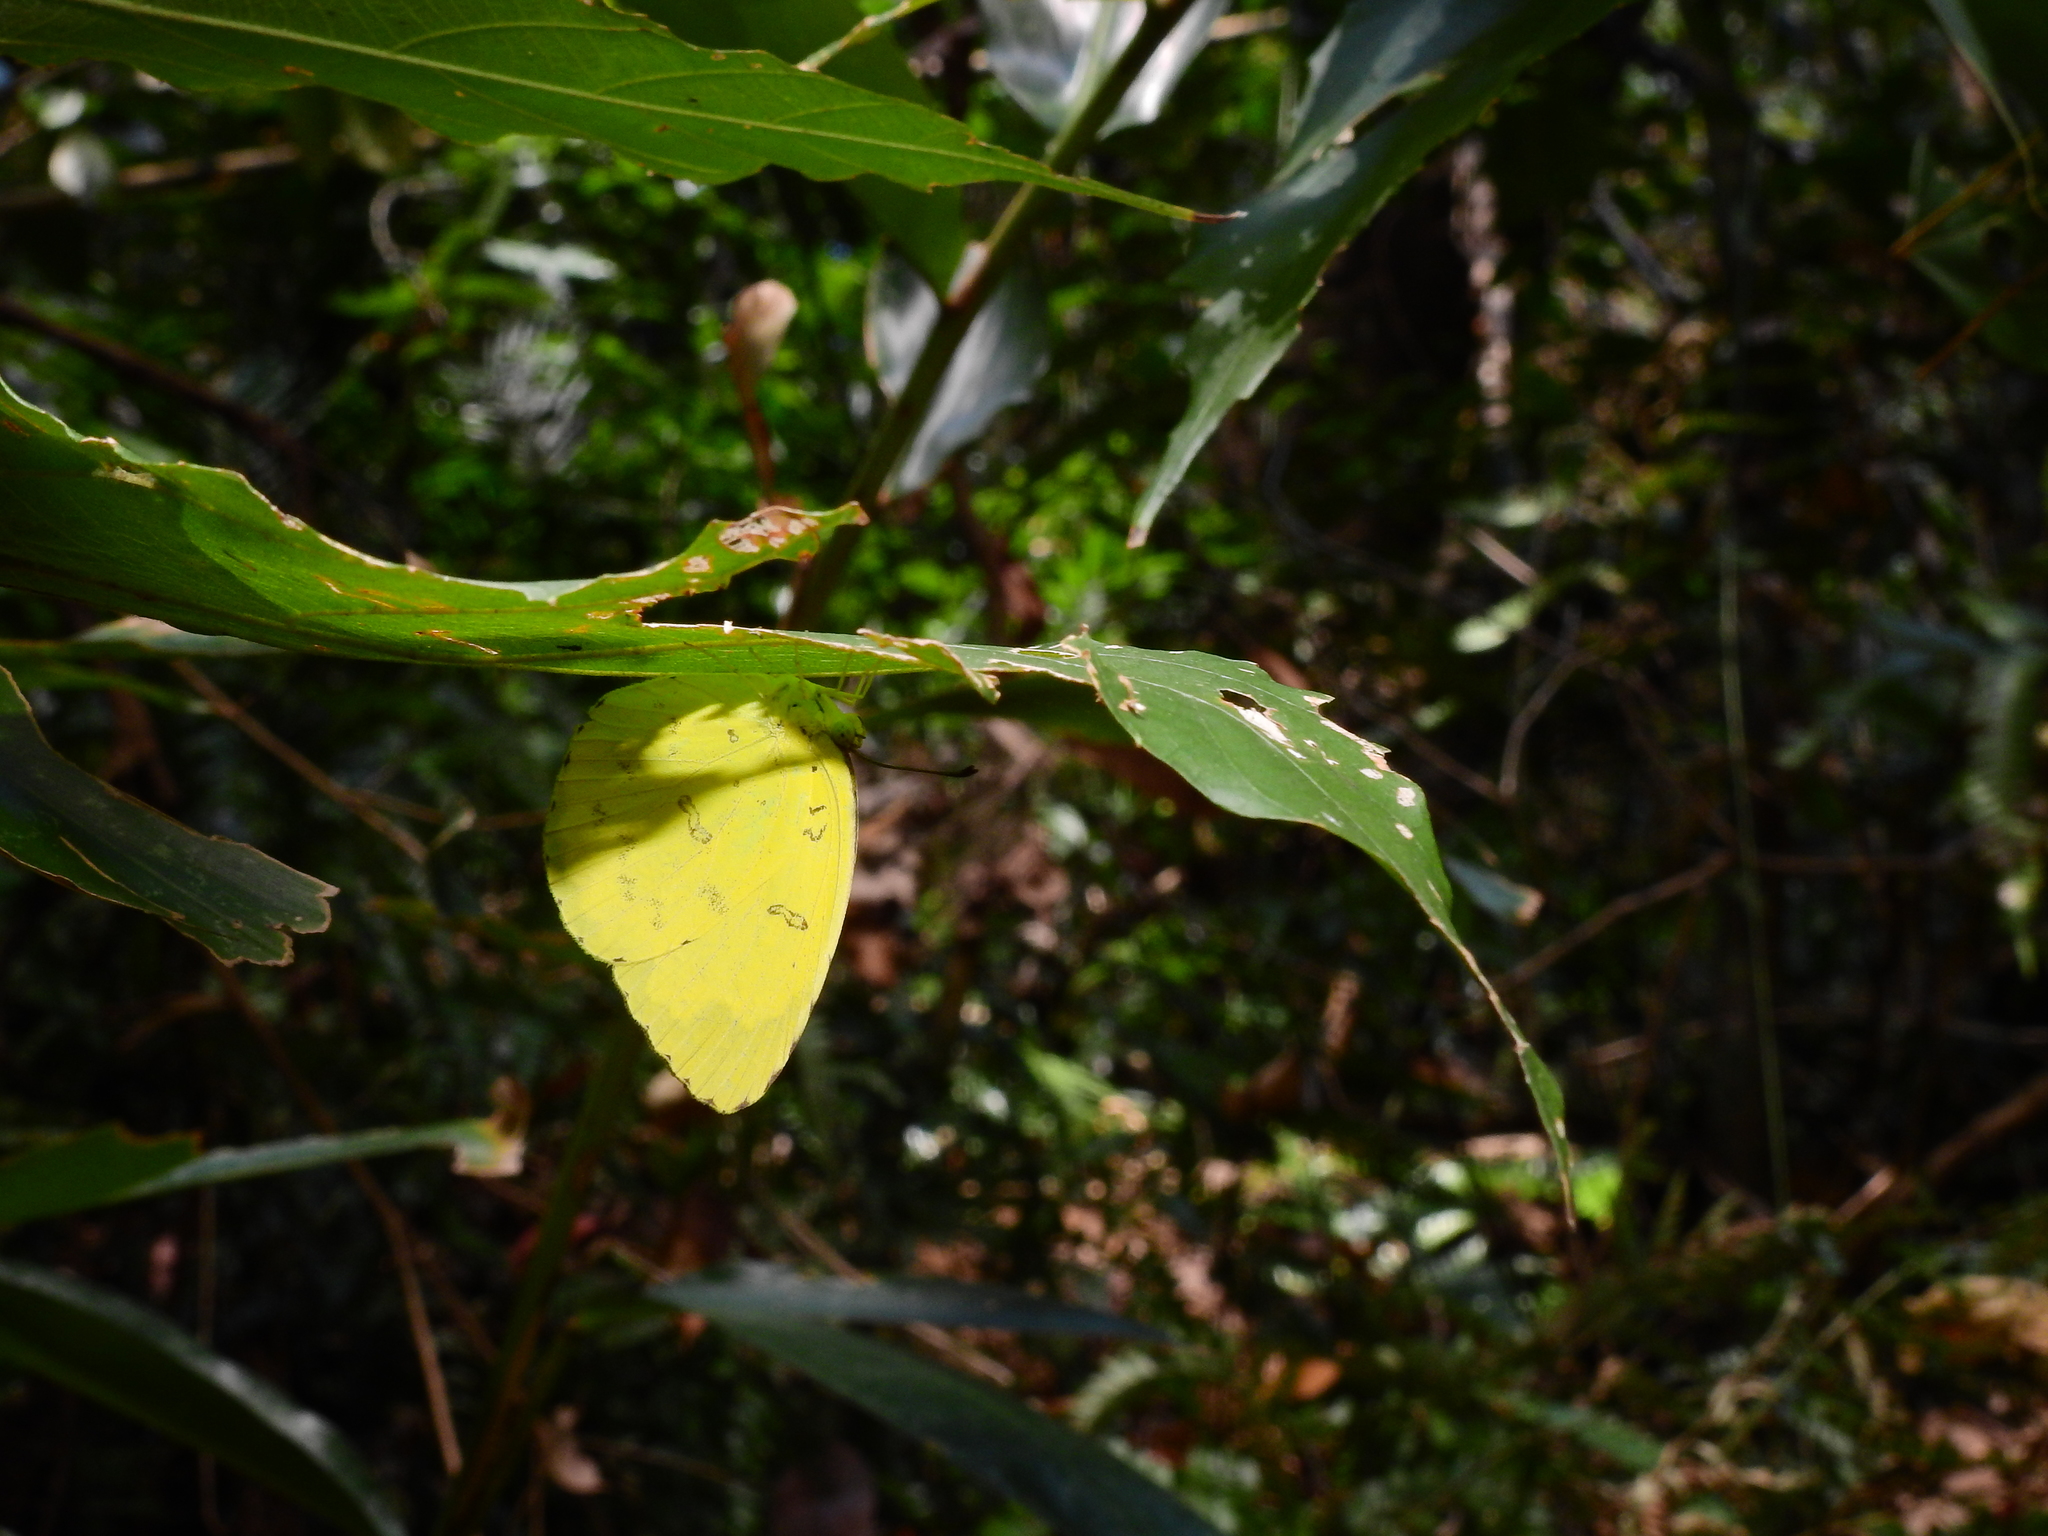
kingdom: Animalia
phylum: Arthropoda
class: Insecta
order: Lepidoptera
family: Pieridae
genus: Eurema
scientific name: Eurema blanda
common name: Three-spot grass yellow
